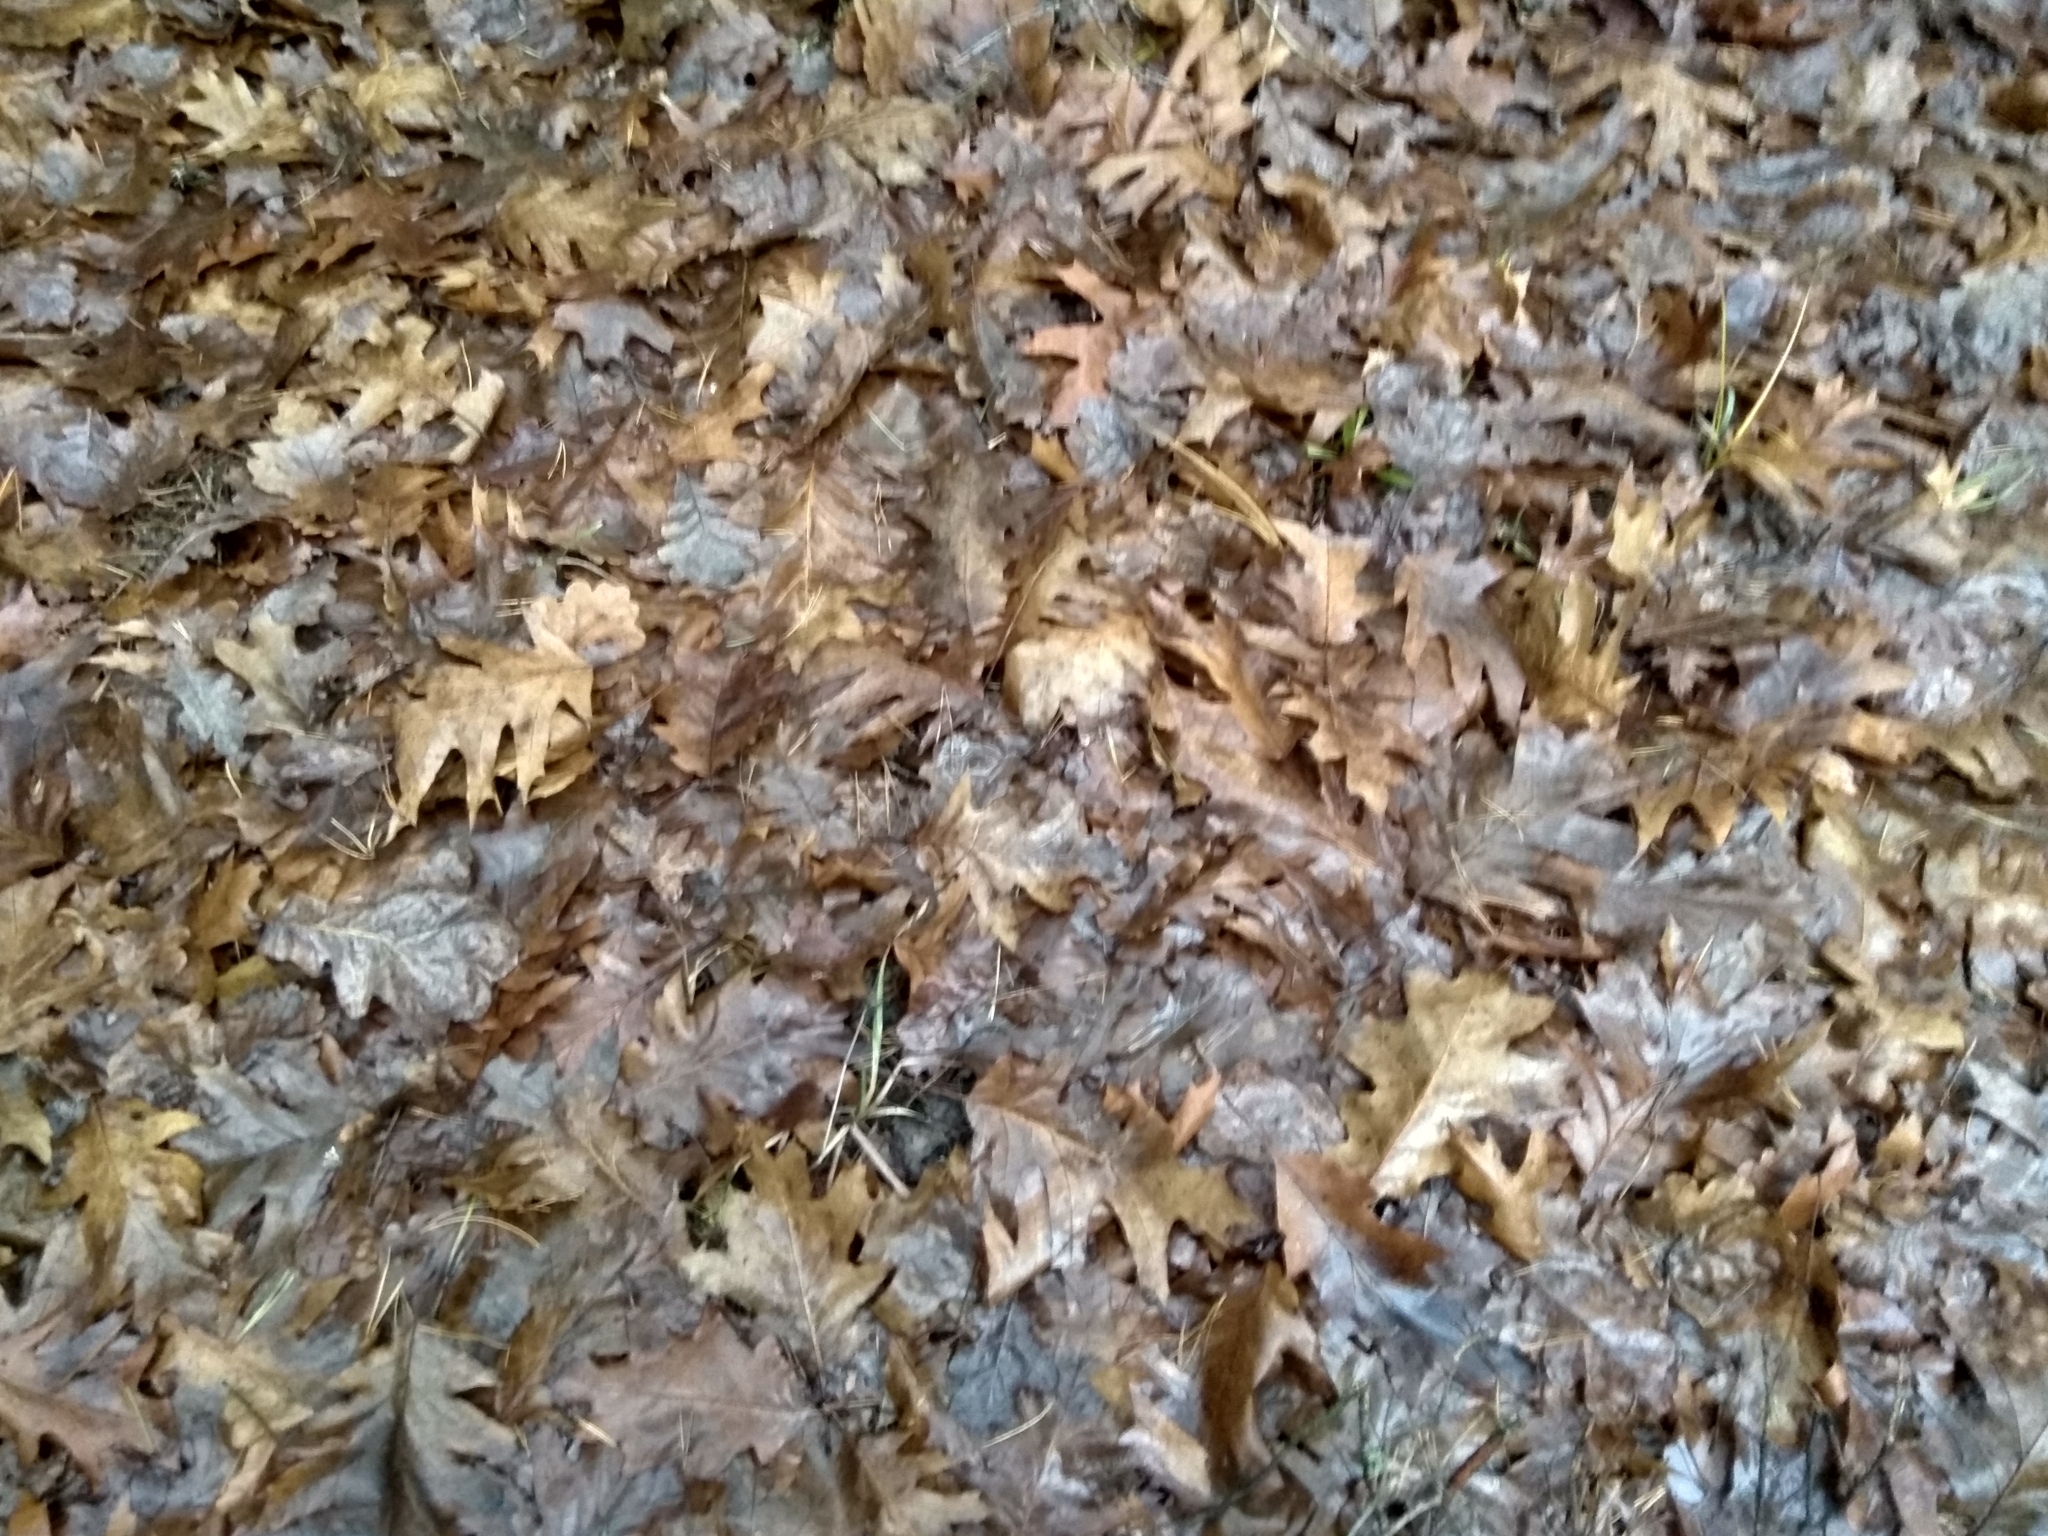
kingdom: Plantae
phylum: Tracheophyta
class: Magnoliopsida
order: Fagales
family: Fagaceae
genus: Quercus
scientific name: Quercus rubra
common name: Red oak
